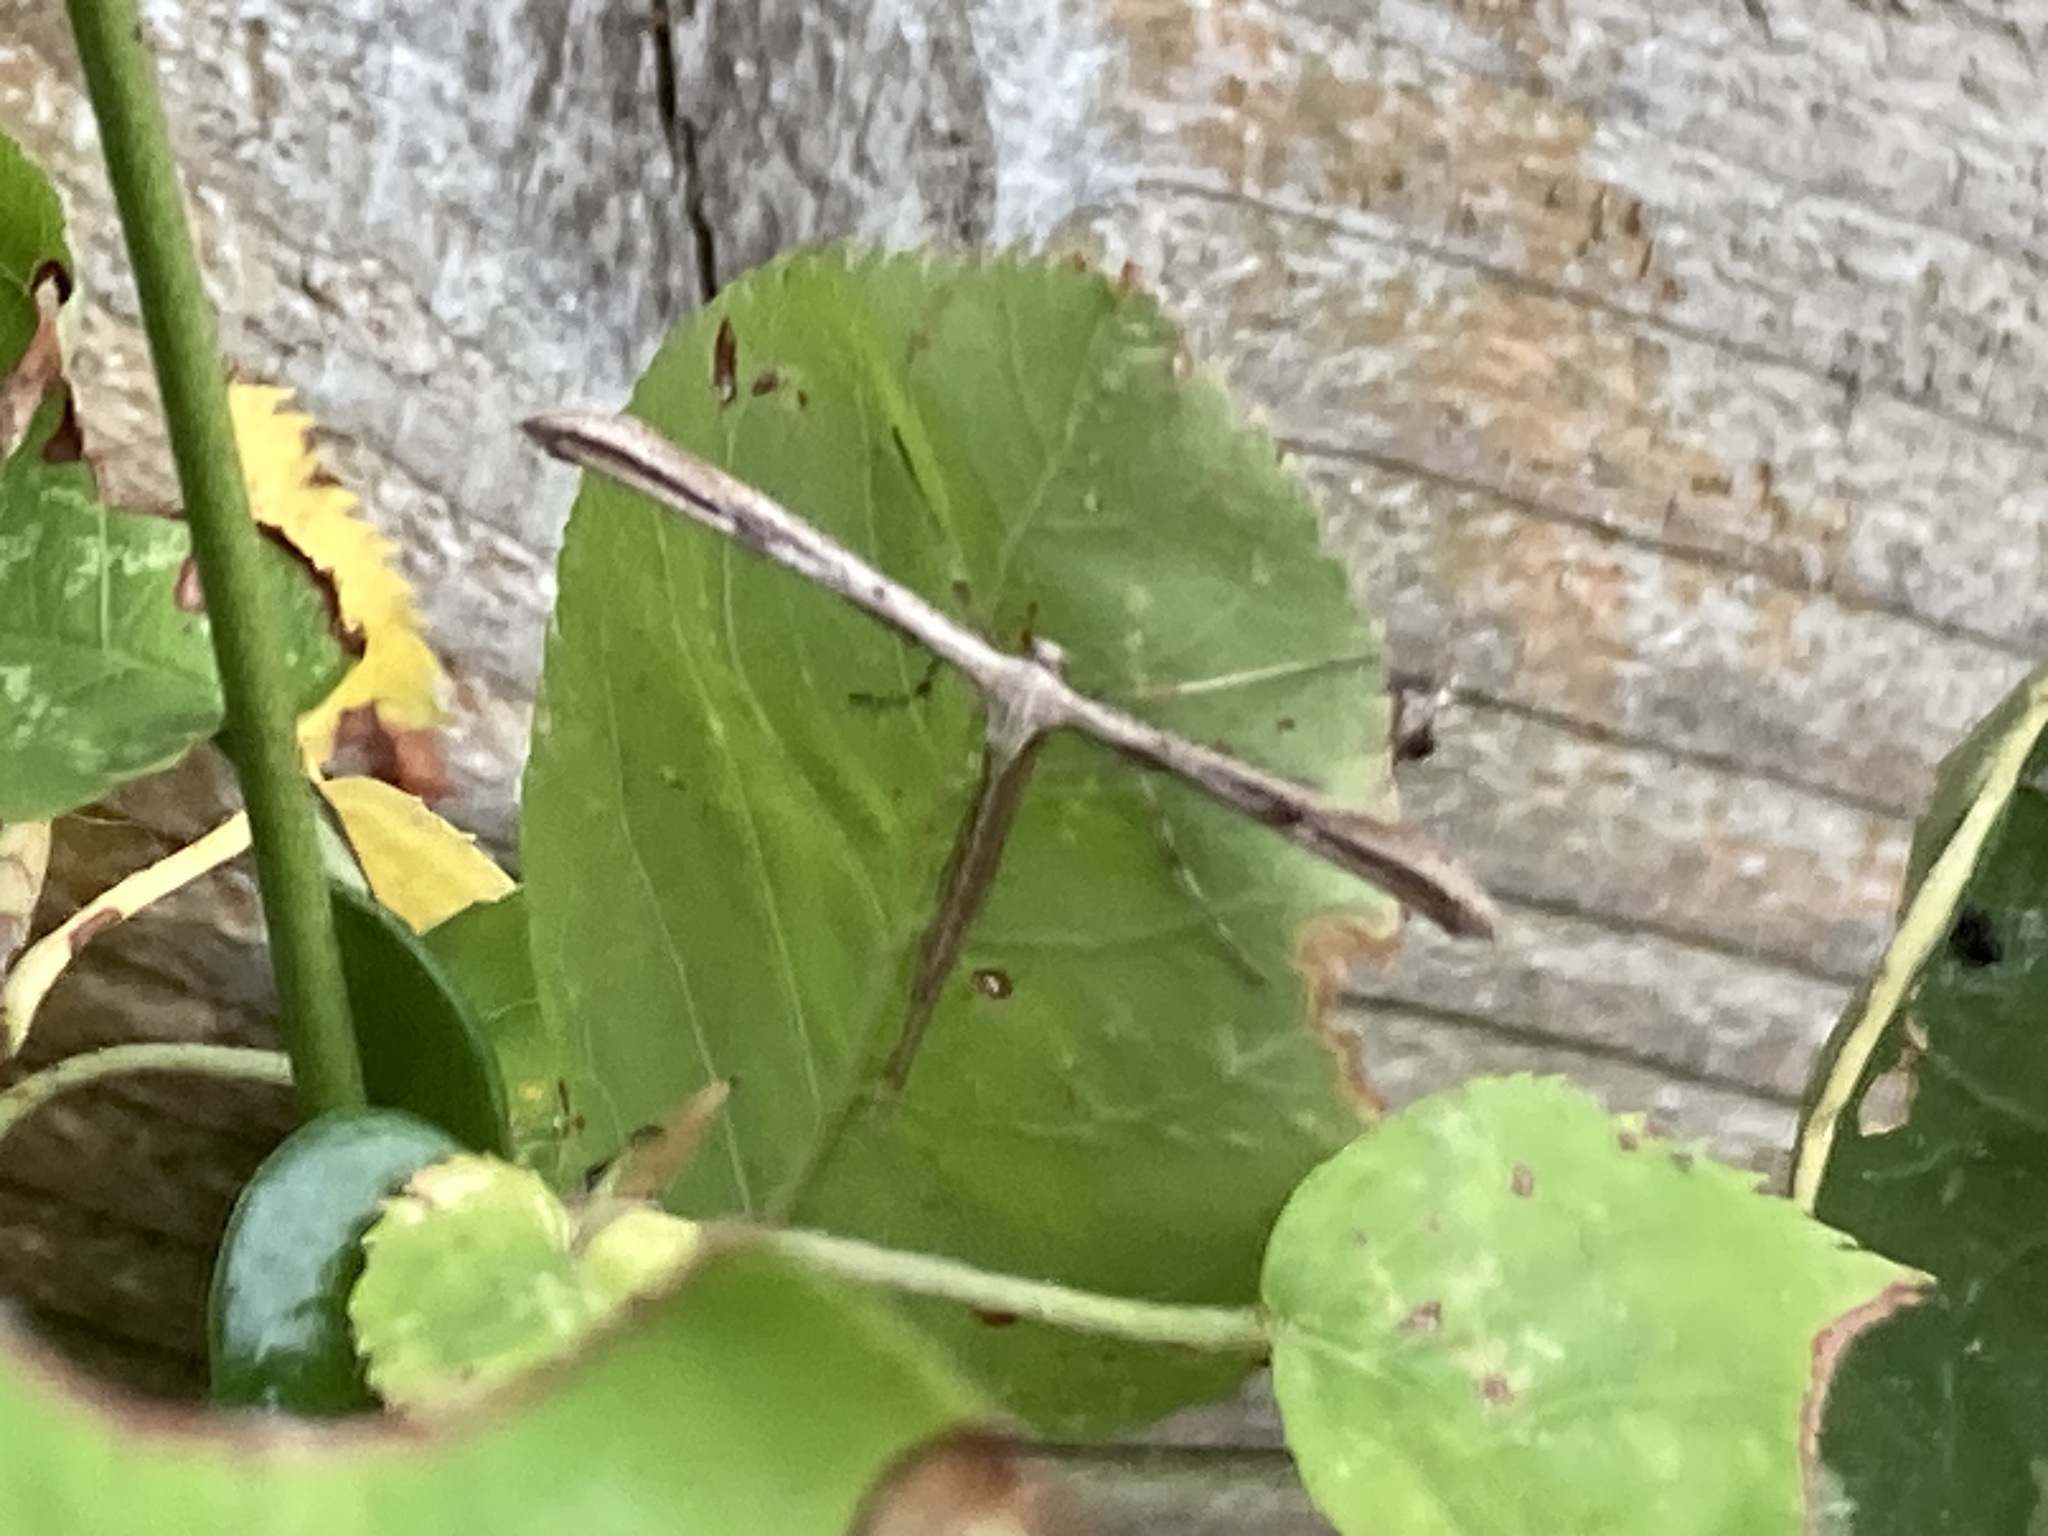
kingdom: Animalia
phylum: Arthropoda
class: Insecta
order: Lepidoptera
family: Pterophoridae
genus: Emmelina
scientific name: Emmelina monodactyla
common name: Common plume
